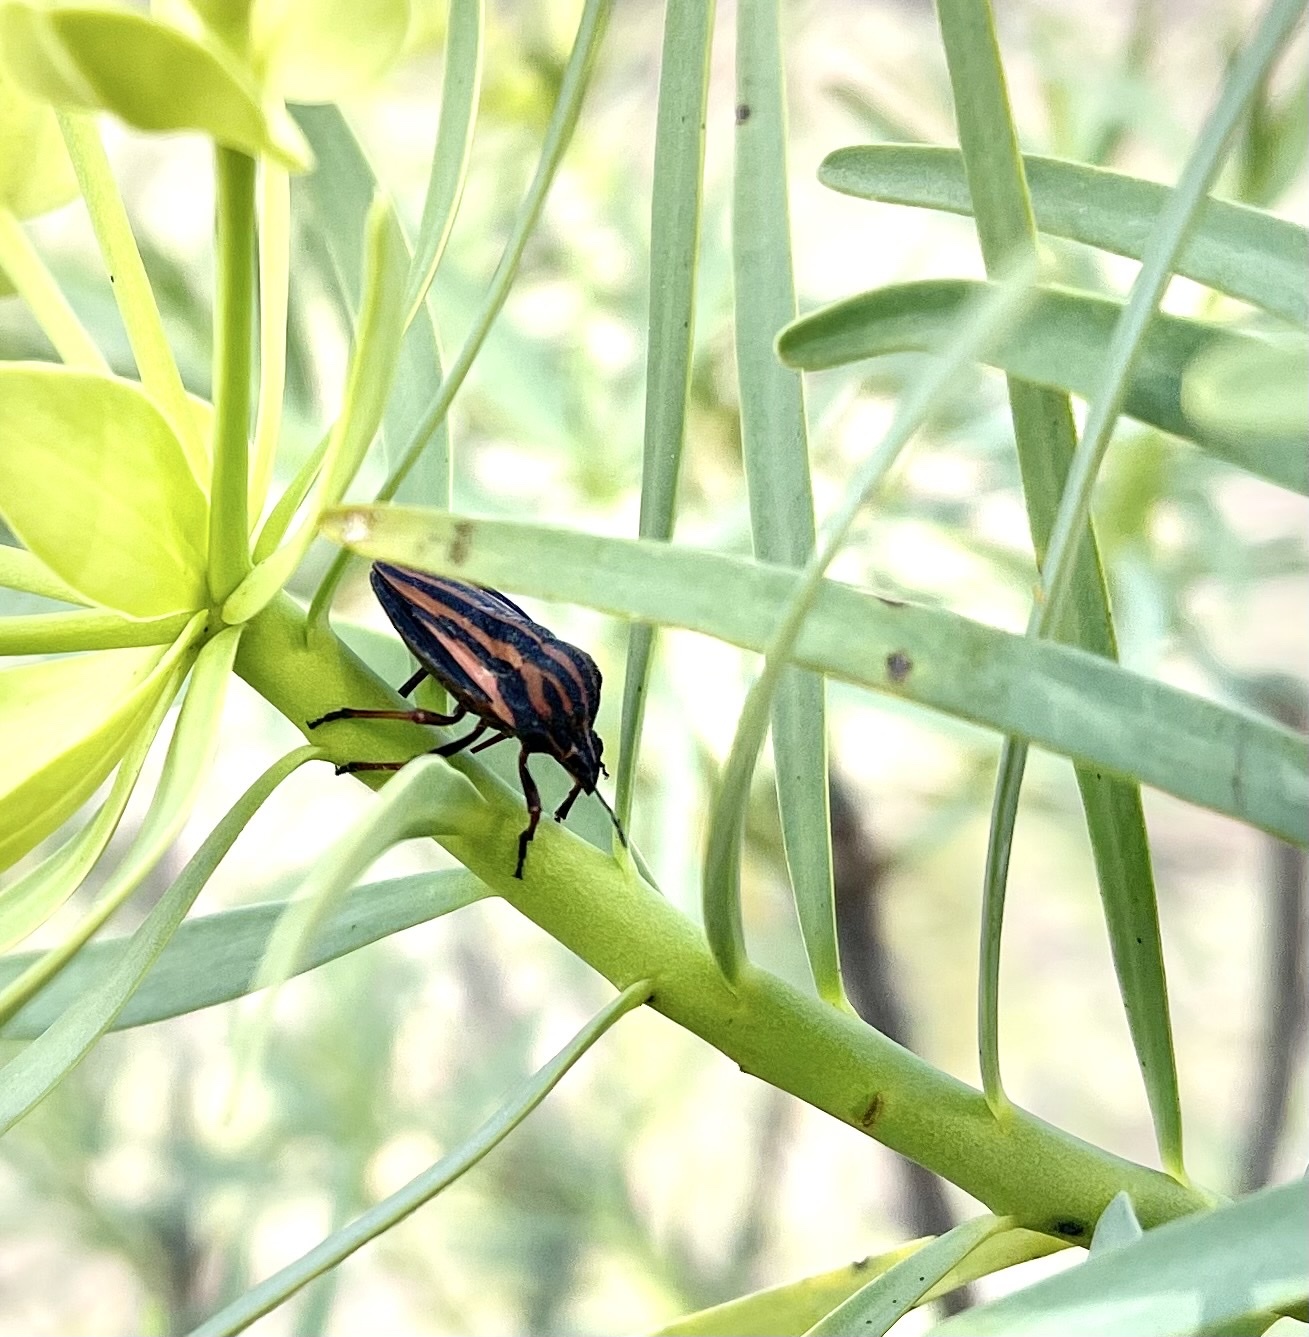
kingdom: Animalia
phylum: Arthropoda
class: Insecta
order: Hemiptera
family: Pentatomidae
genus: Graphosoma
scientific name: Graphosoma interruptum
